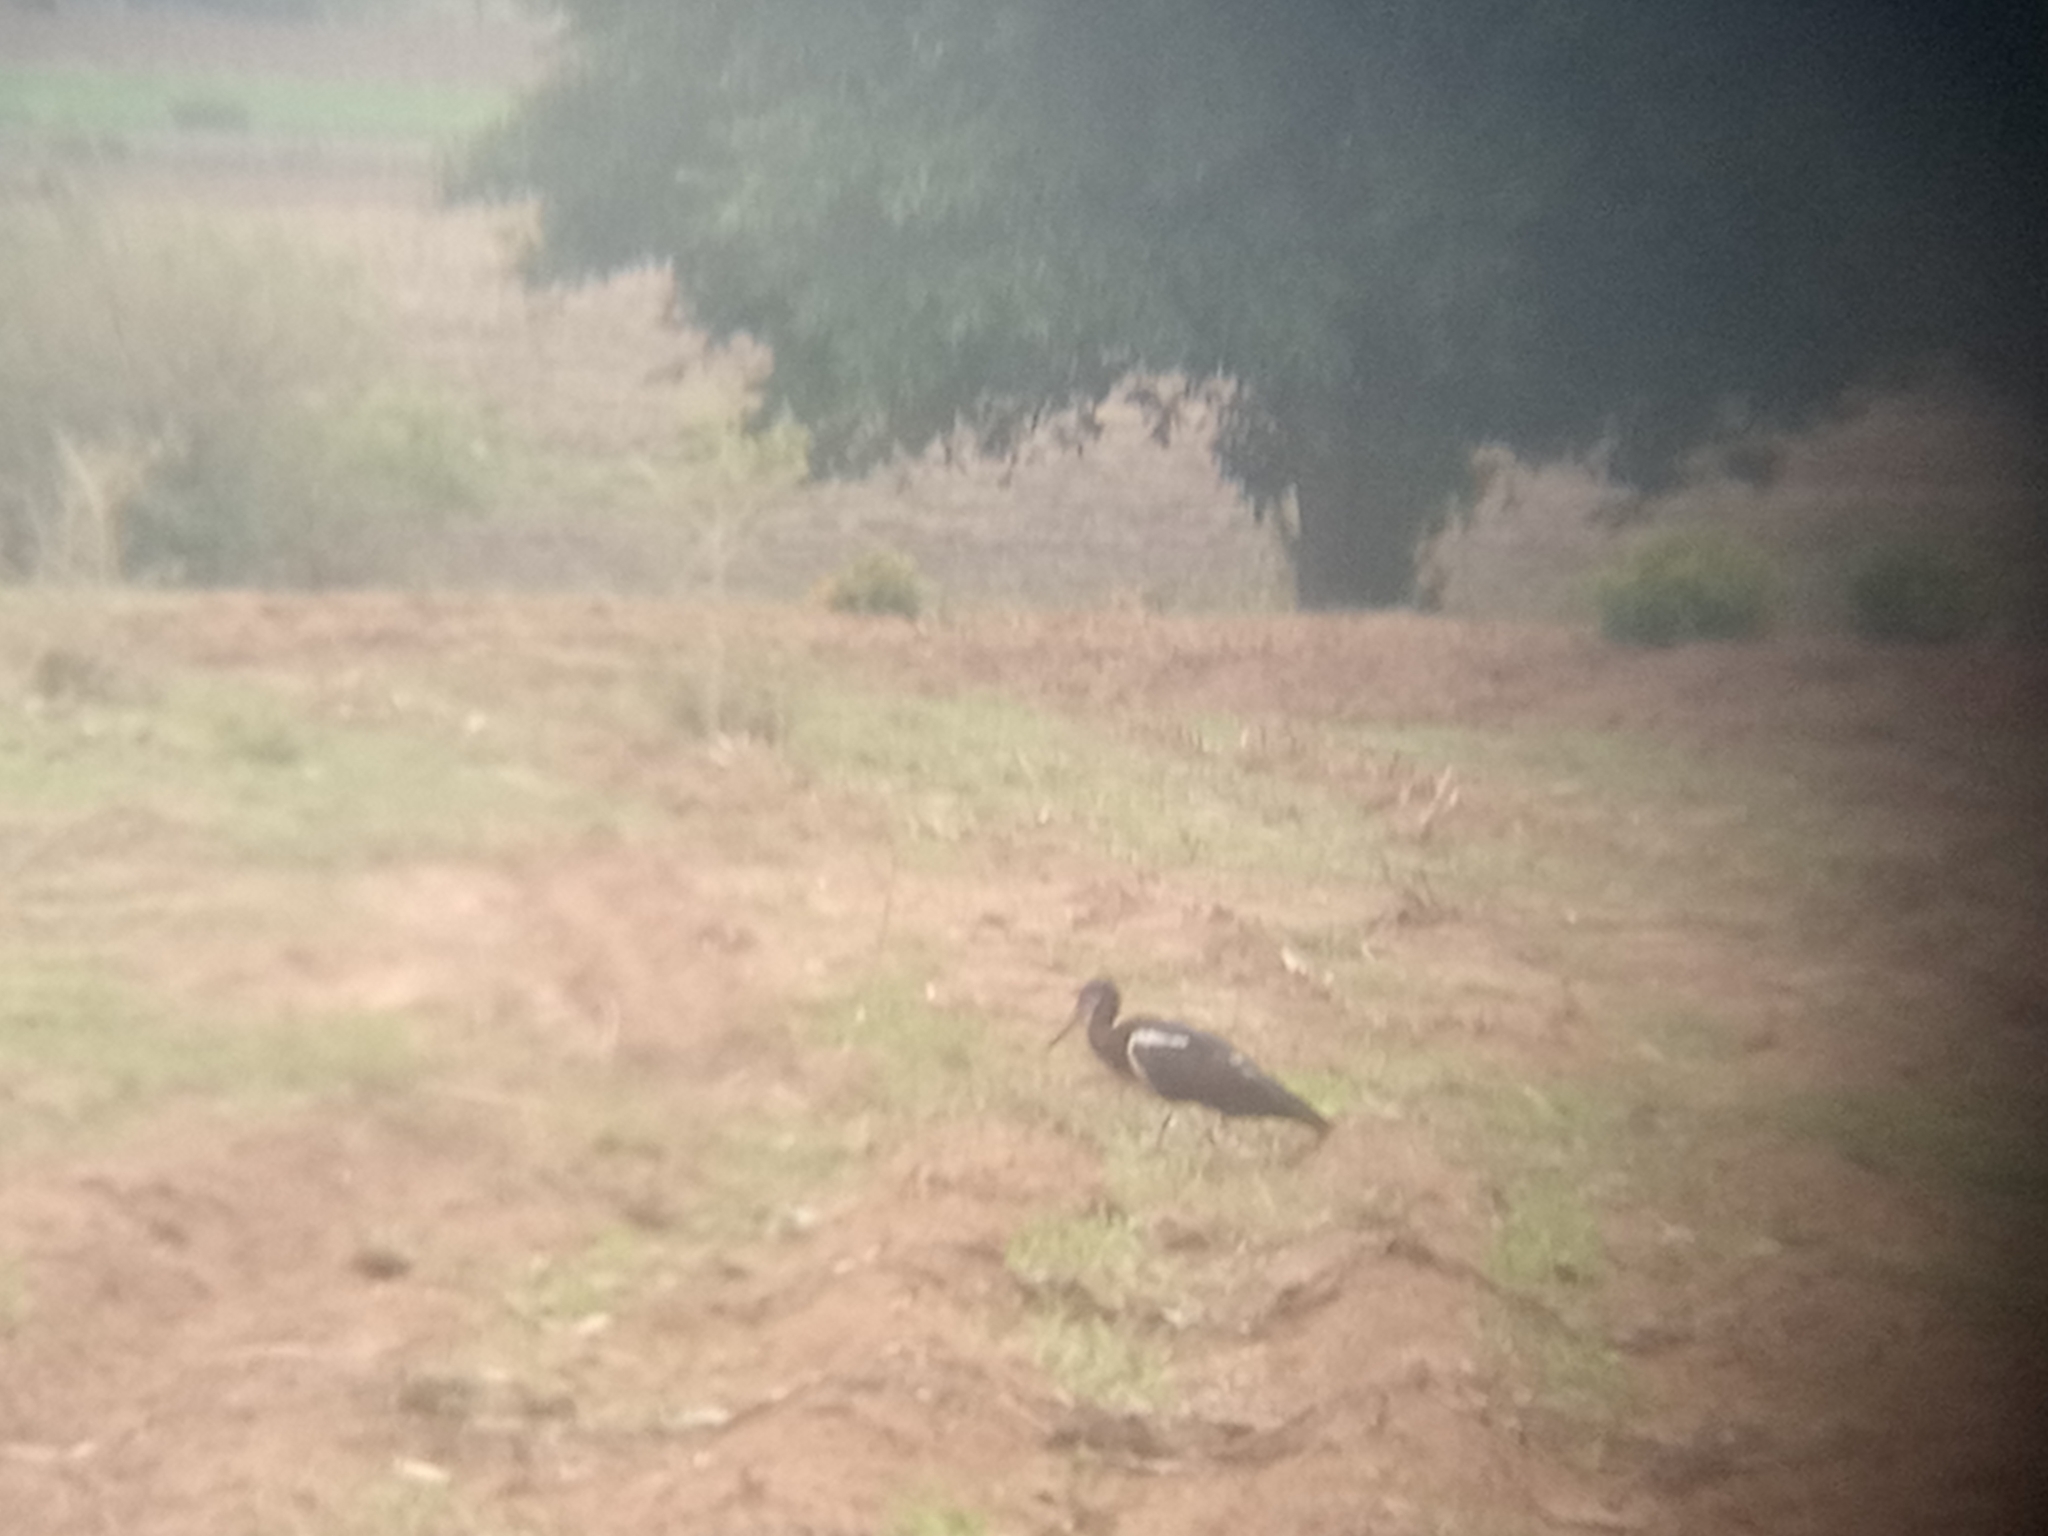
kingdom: Animalia
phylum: Chordata
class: Aves
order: Ciconiiformes
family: Ciconiidae
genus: Ciconia
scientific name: Ciconia abdimii
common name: Abdim's stork
